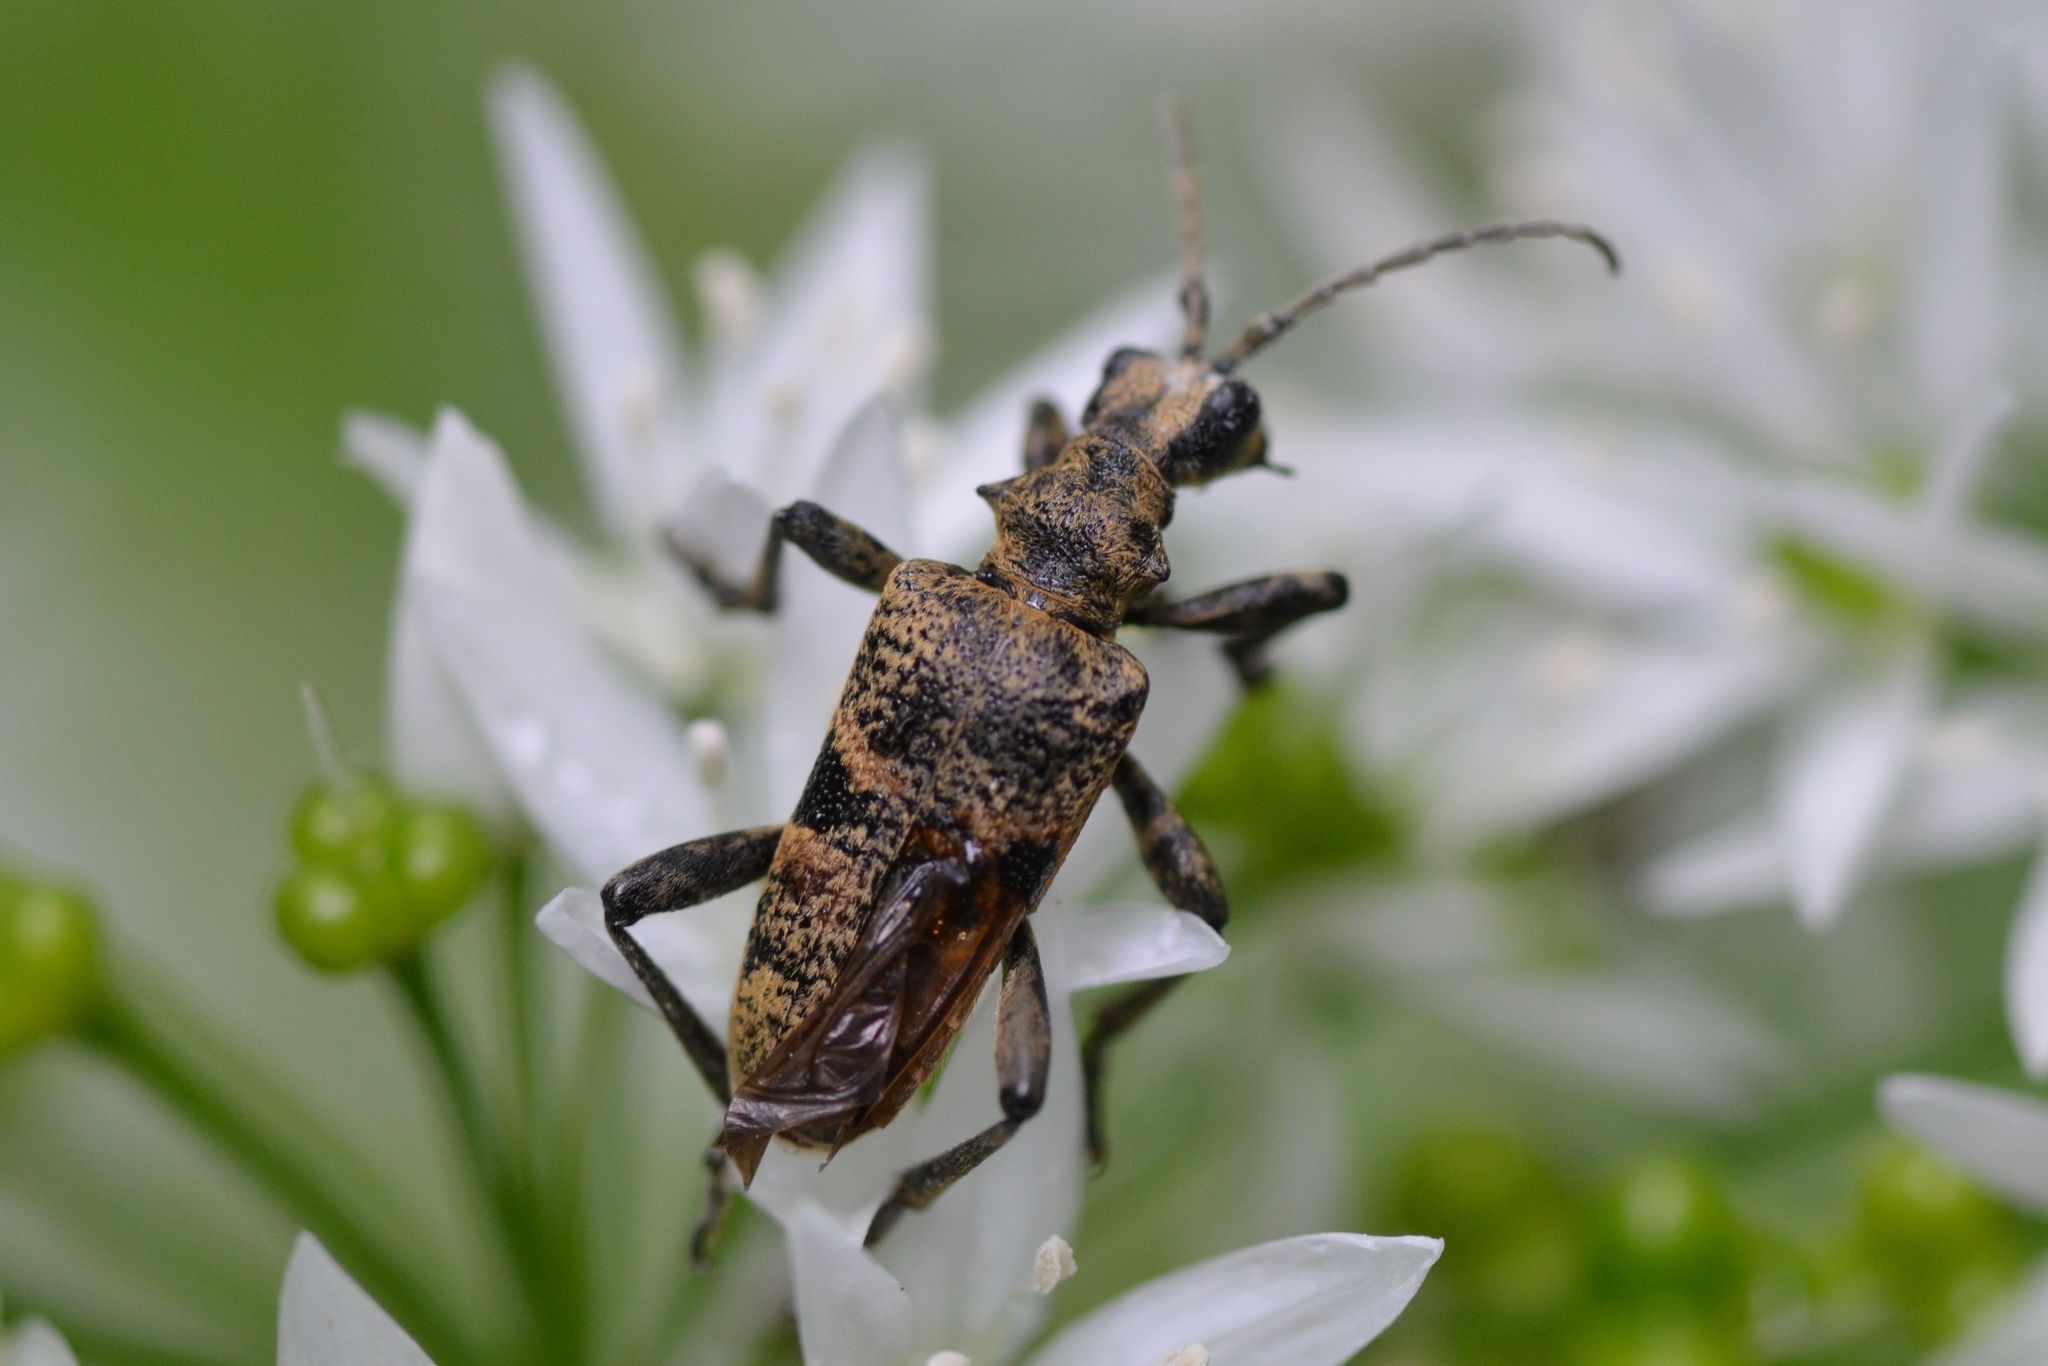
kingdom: Animalia
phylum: Arthropoda
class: Insecta
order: Coleoptera
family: Cerambycidae
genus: Rhagium
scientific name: Rhagium mordax
